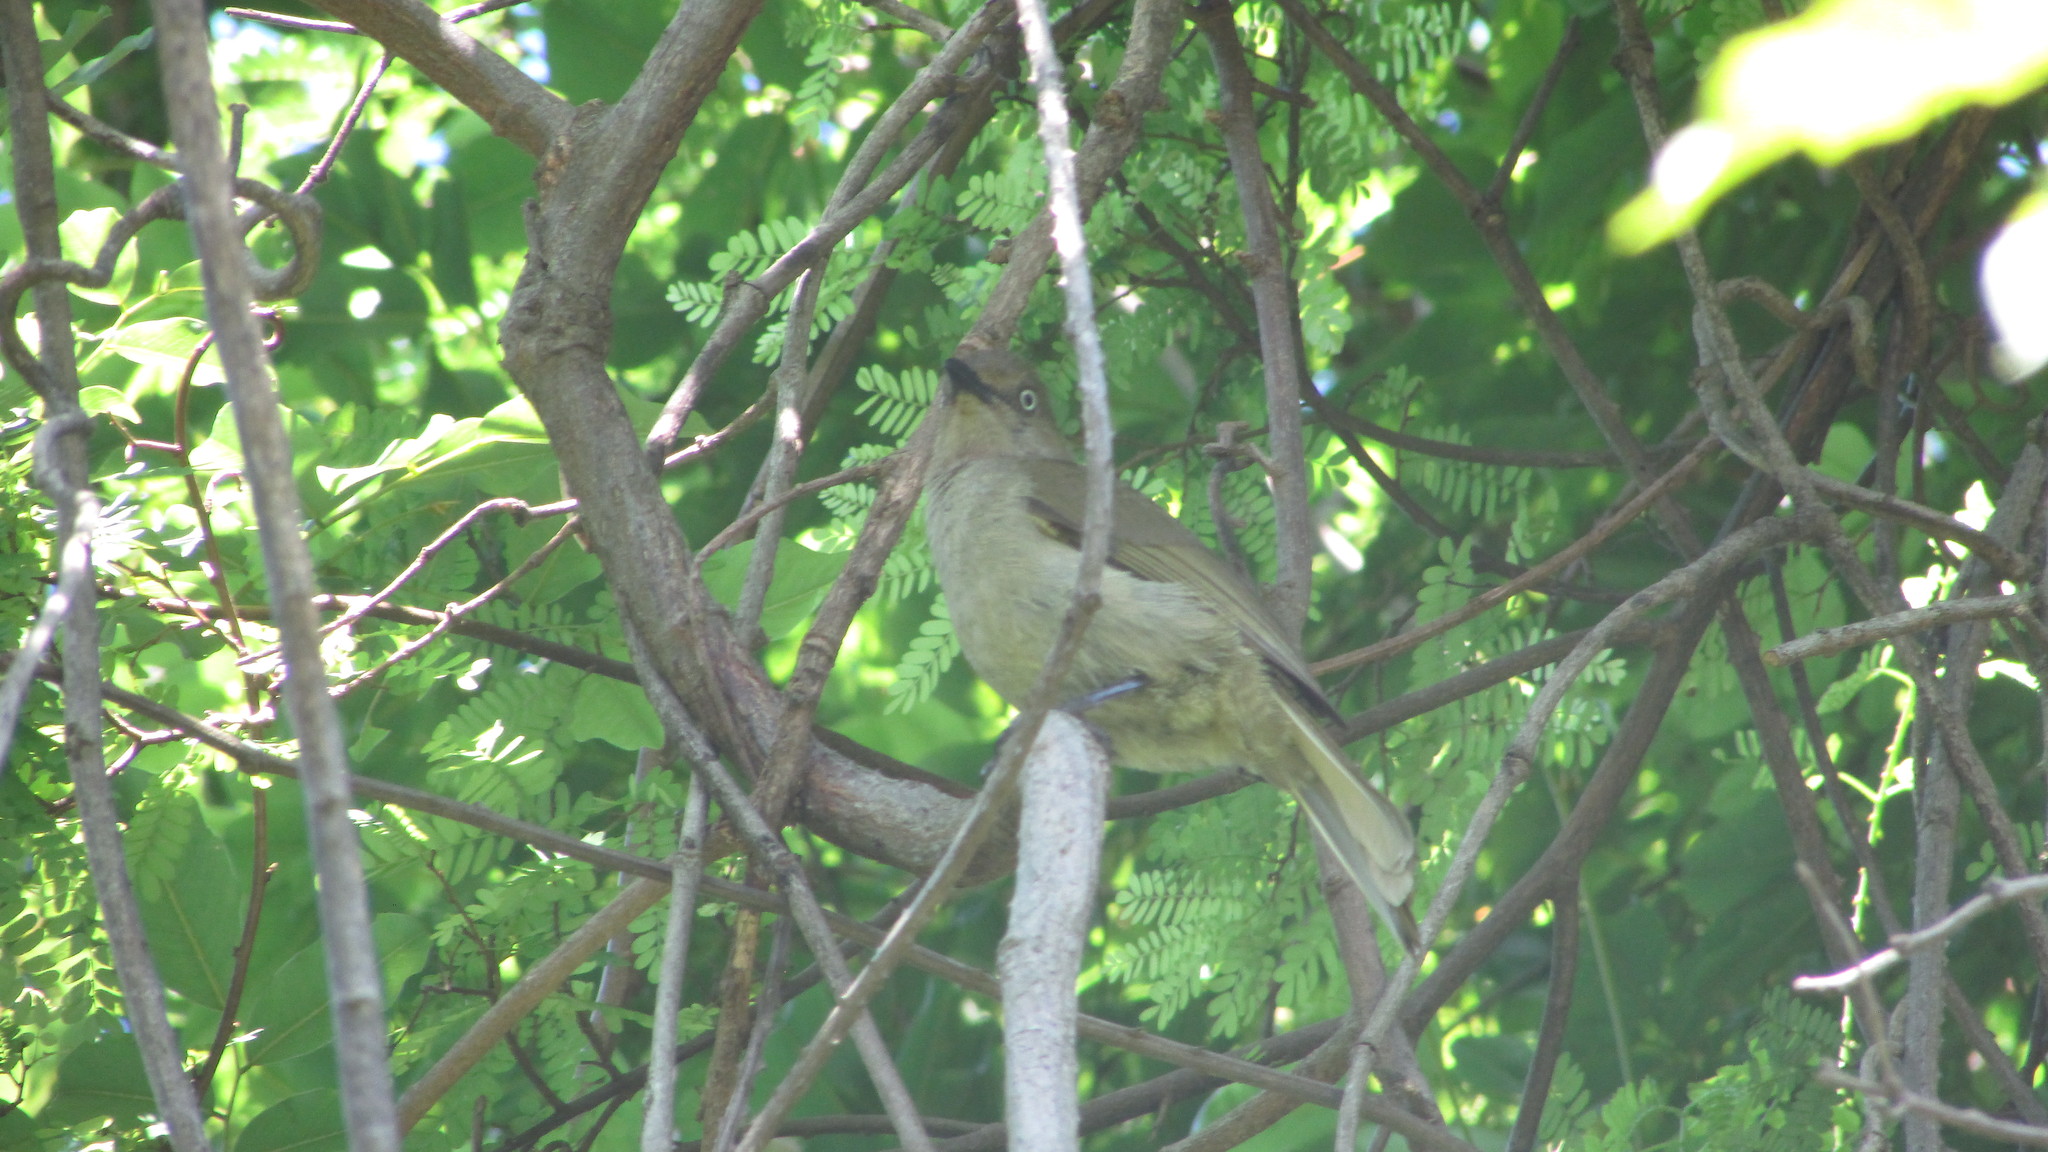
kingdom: Animalia
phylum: Chordata
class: Aves
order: Passeriformes
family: Pycnonotidae
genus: Andropadus
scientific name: Andropadus importunus
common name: Sombre greenbul
